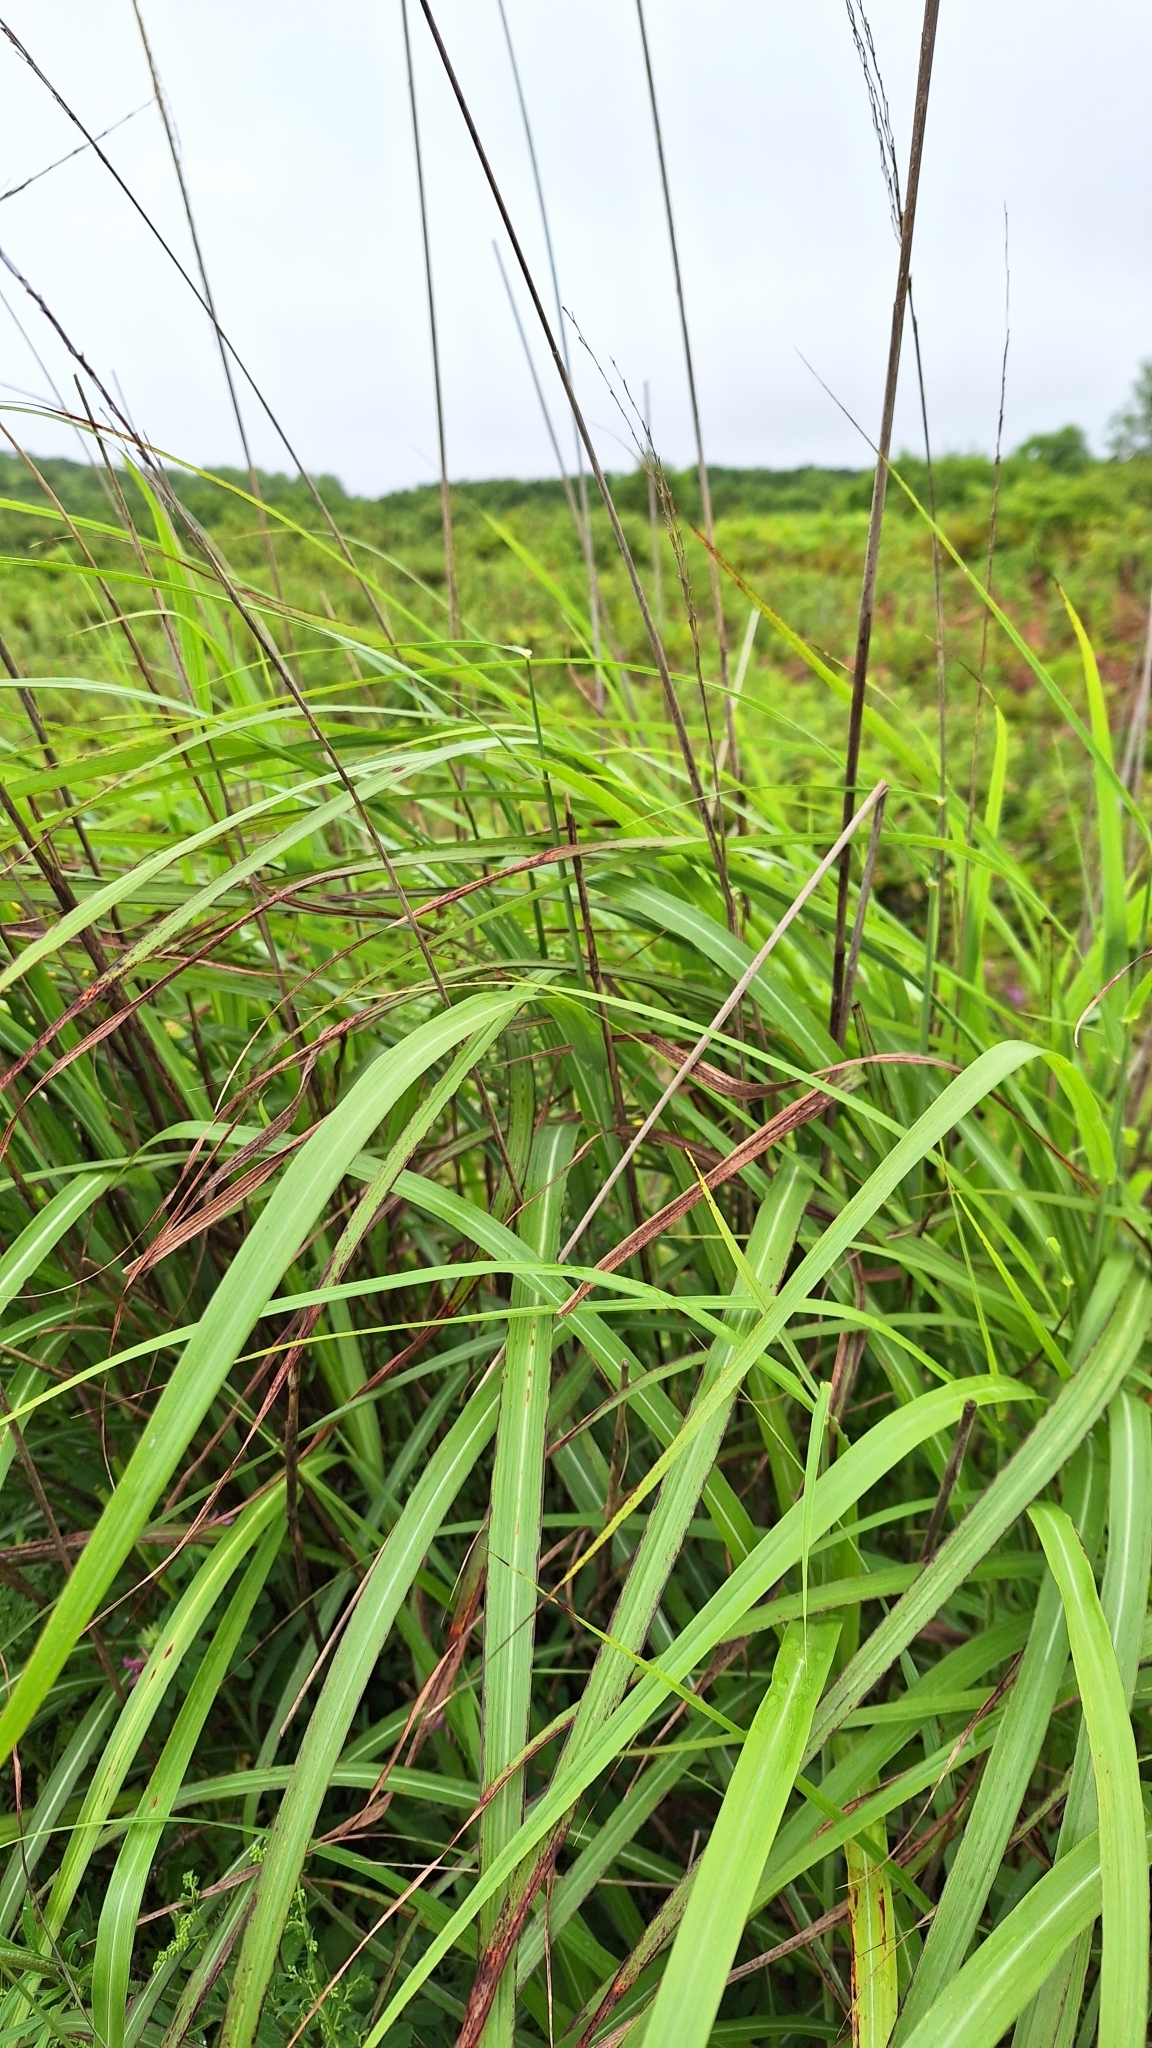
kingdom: Plantae
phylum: Tracheophyta
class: Liliopsida
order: Poales
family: Poaceae
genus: Miscanthus
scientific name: Miscanthus sinensis
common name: Chinese silvergrass
